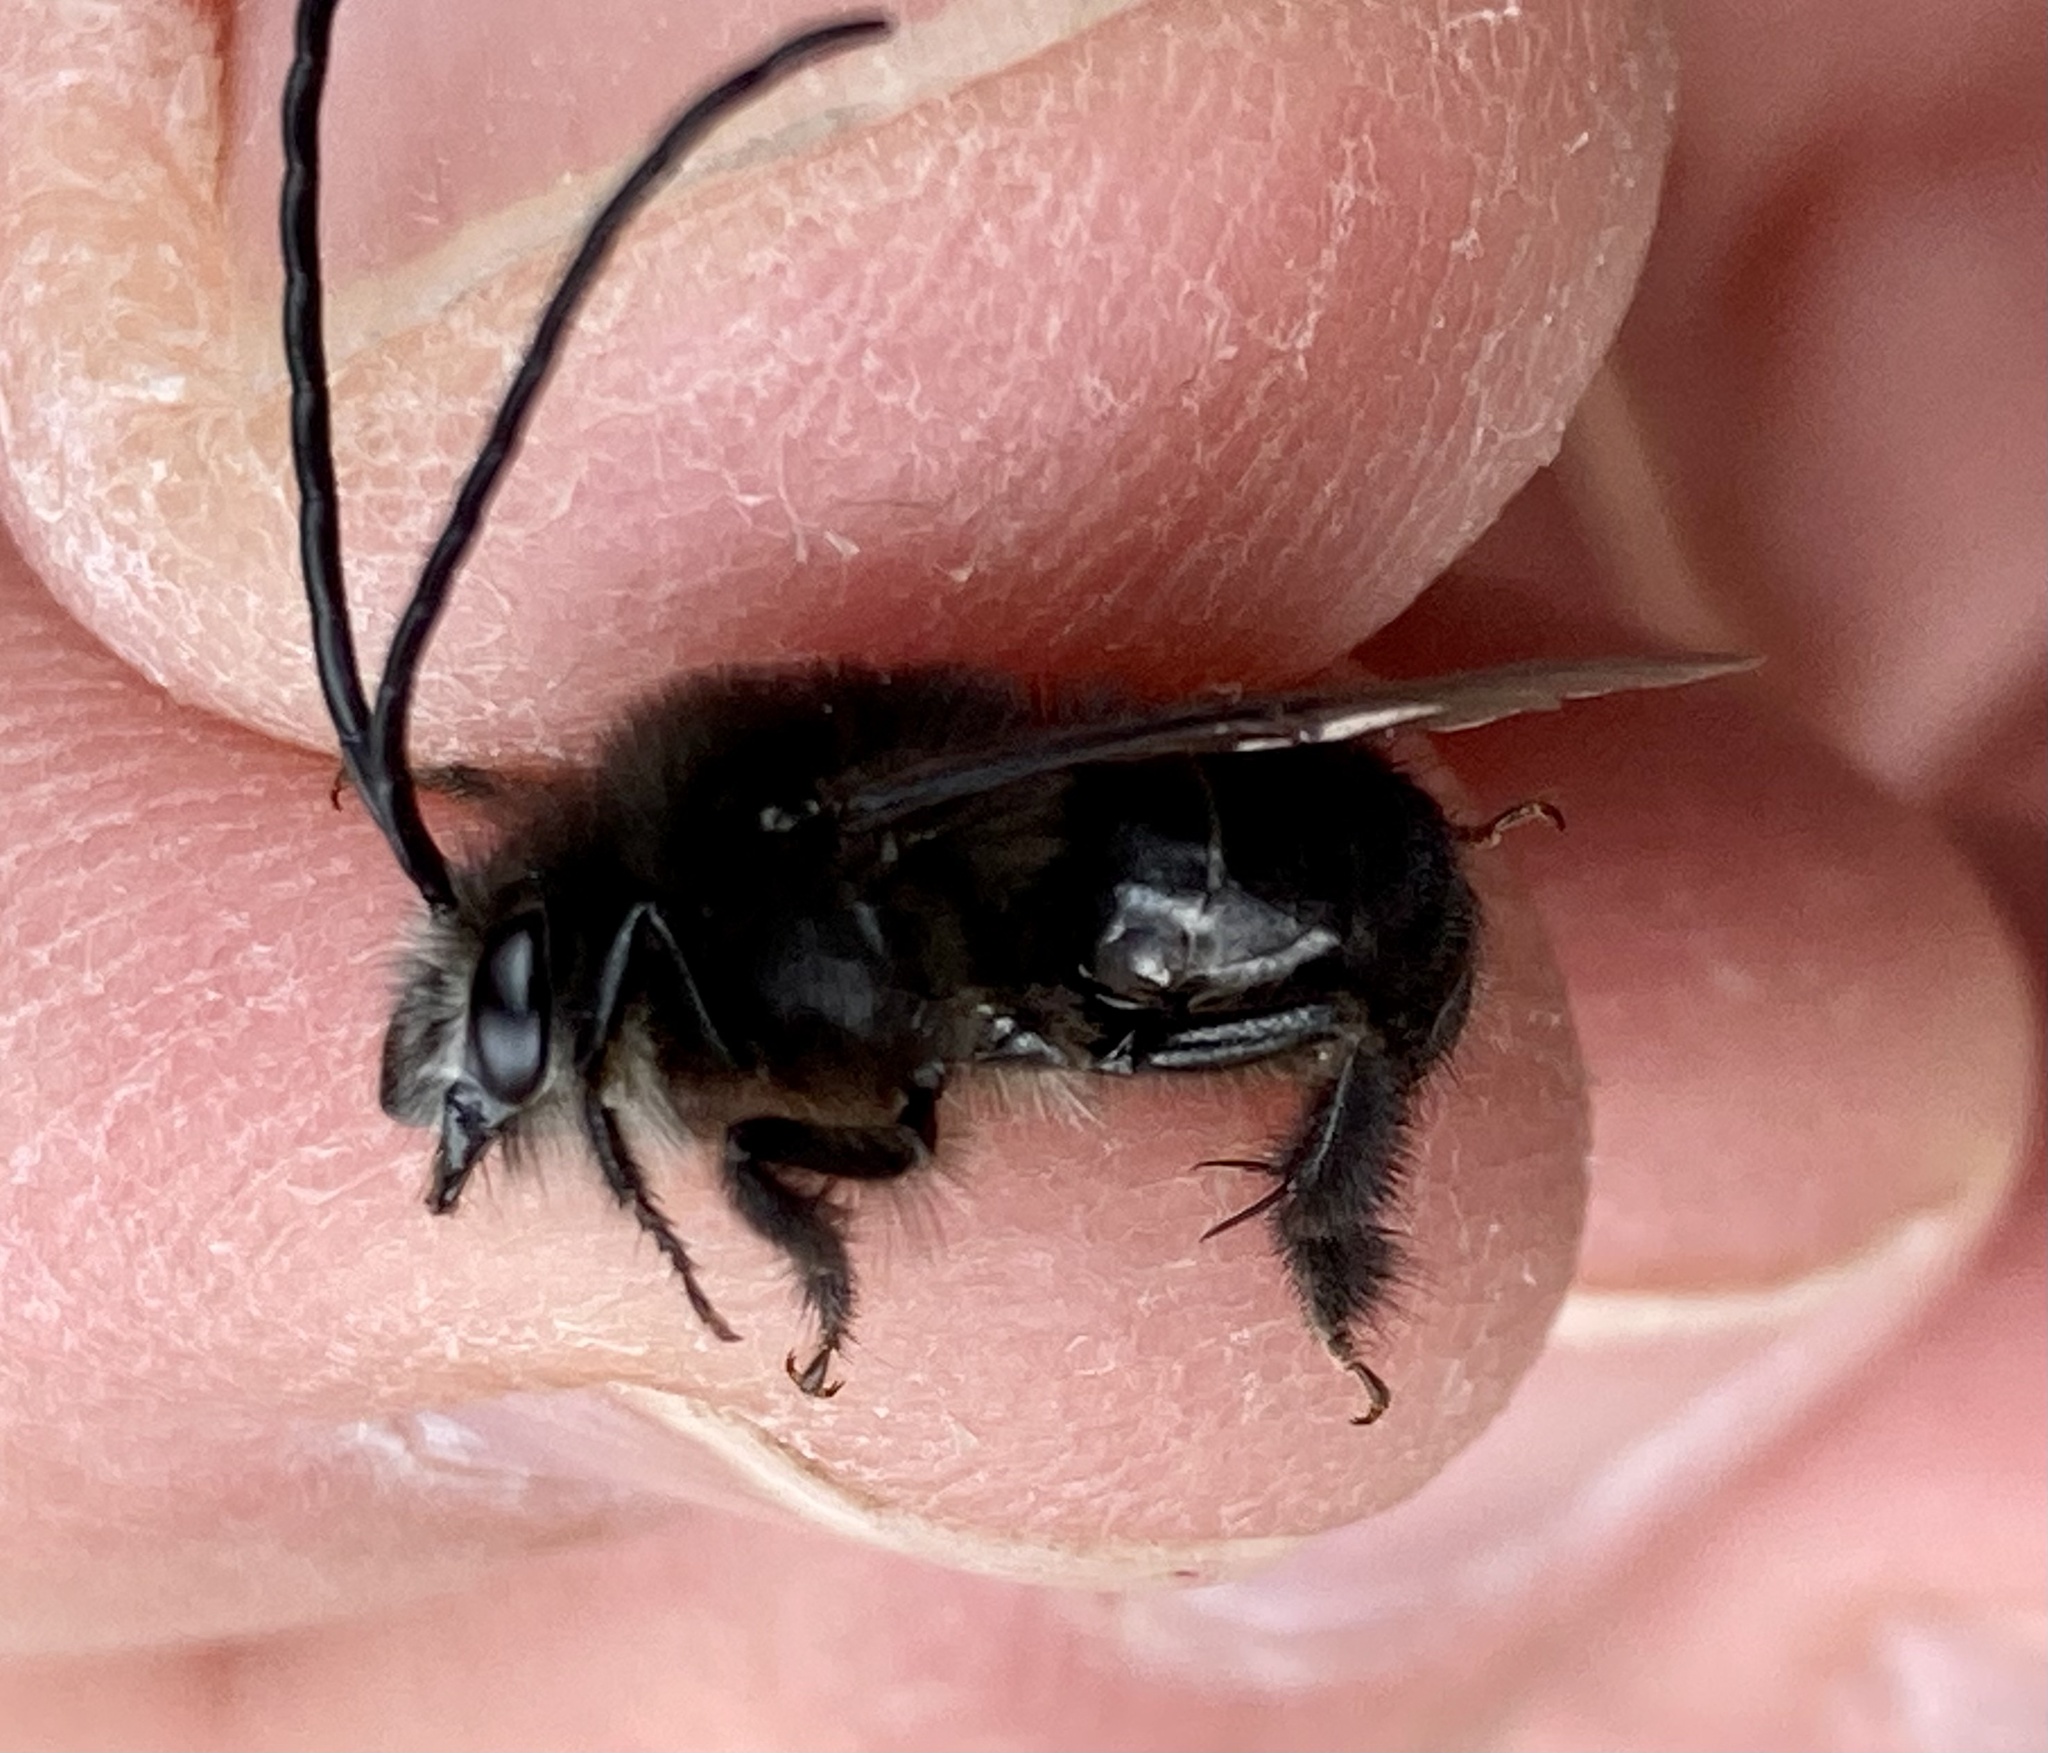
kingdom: Animalia
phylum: Arthropoda
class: Insecta
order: Hymenoptera
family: Apidae
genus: Thygater
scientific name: Thygater aethiops
